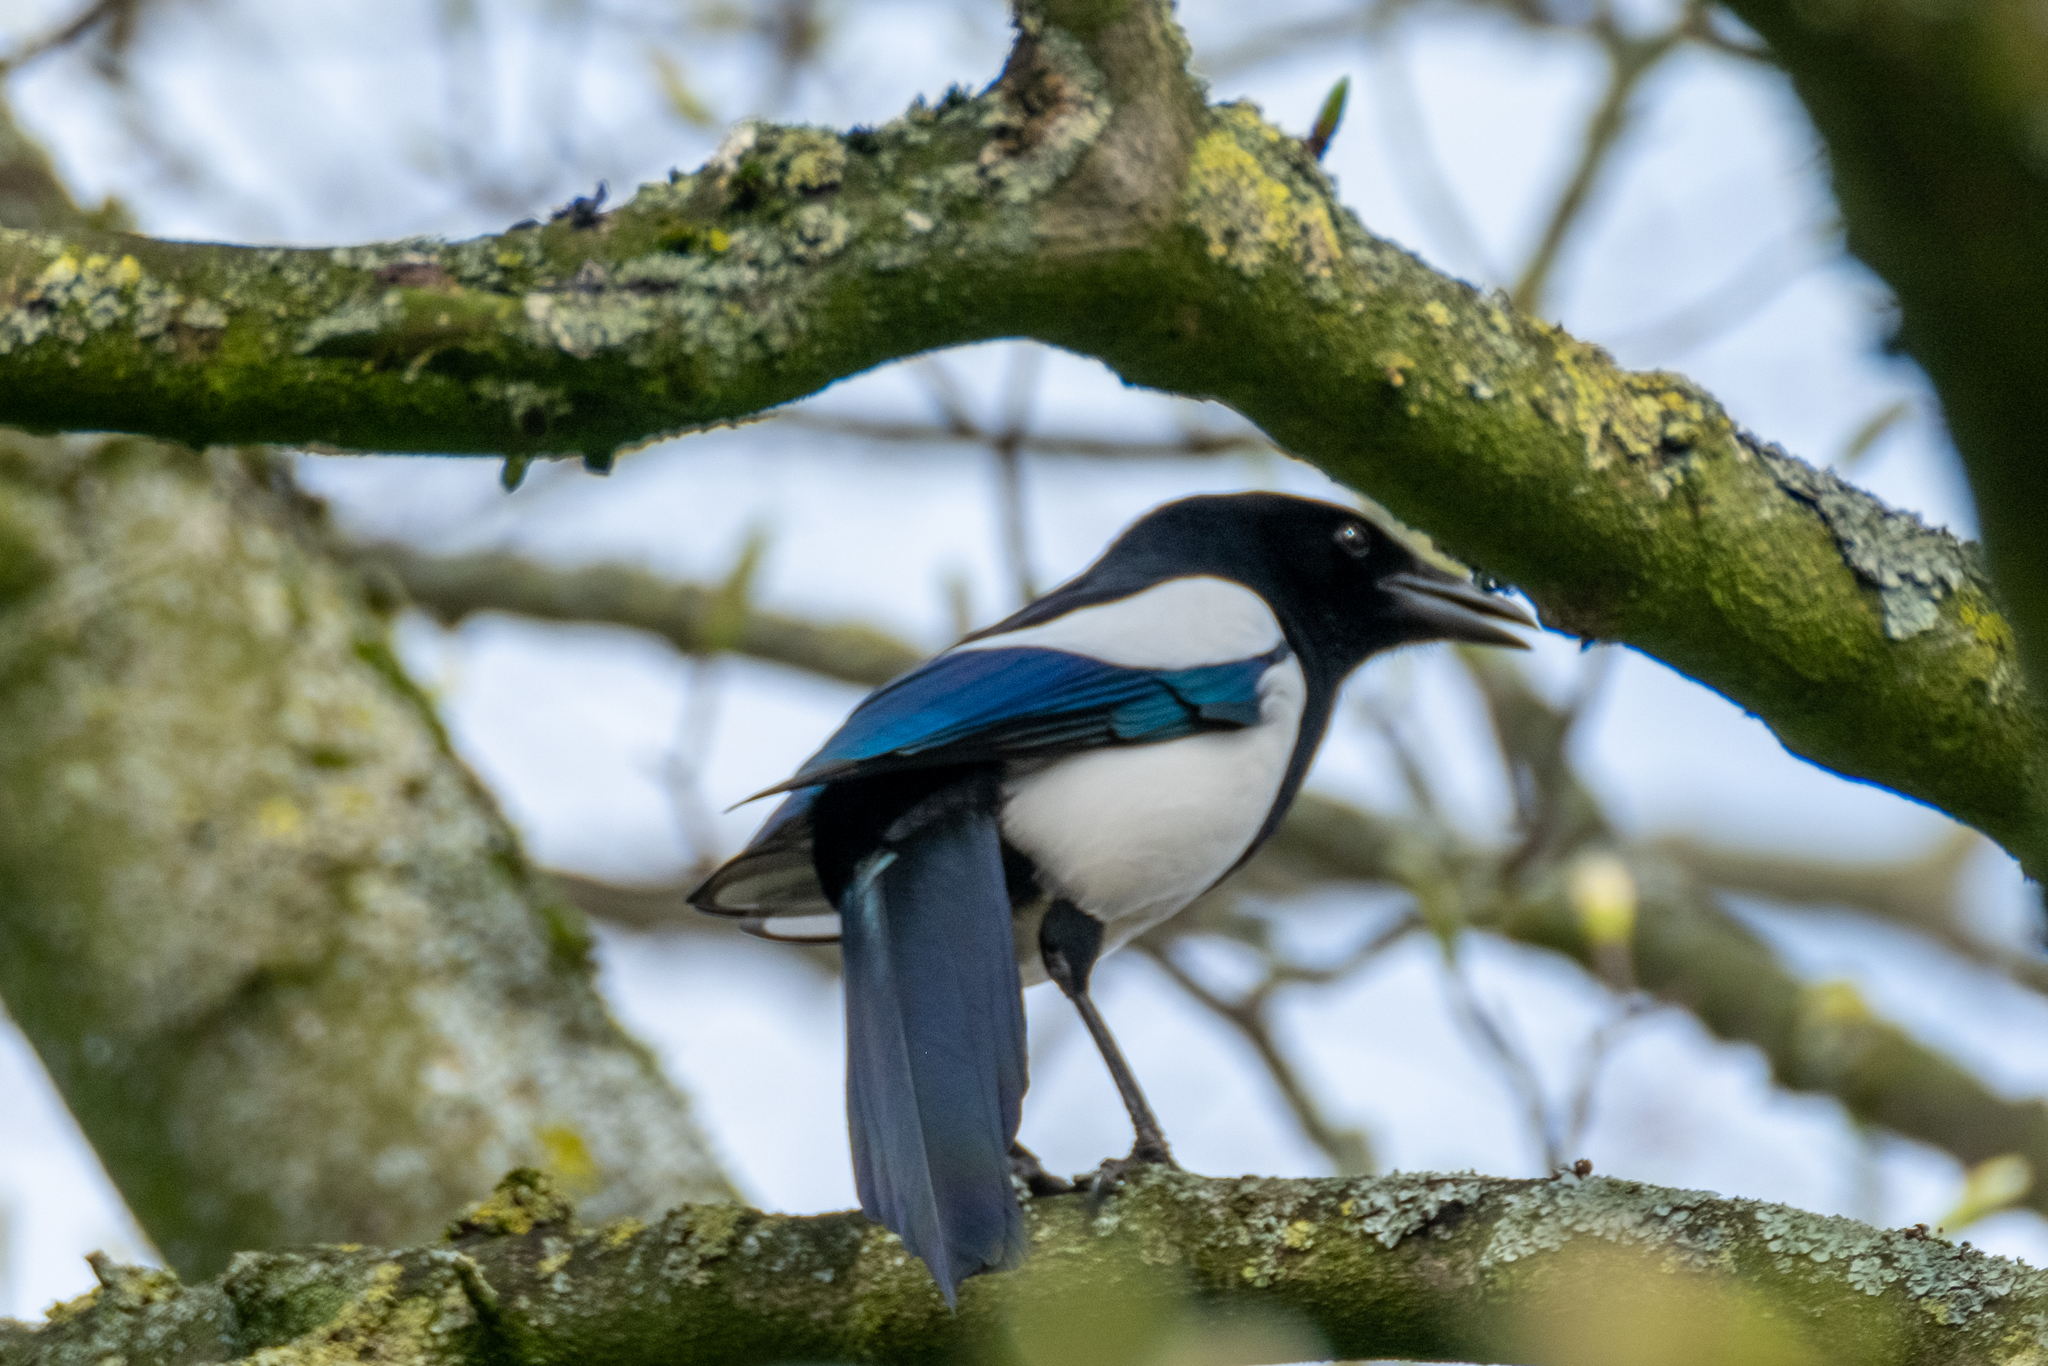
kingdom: Animalia
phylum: Chordata
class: Aves
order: Passeriformes
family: Corvidae
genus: Pica
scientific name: Pica pica
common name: Eurasian magpie
